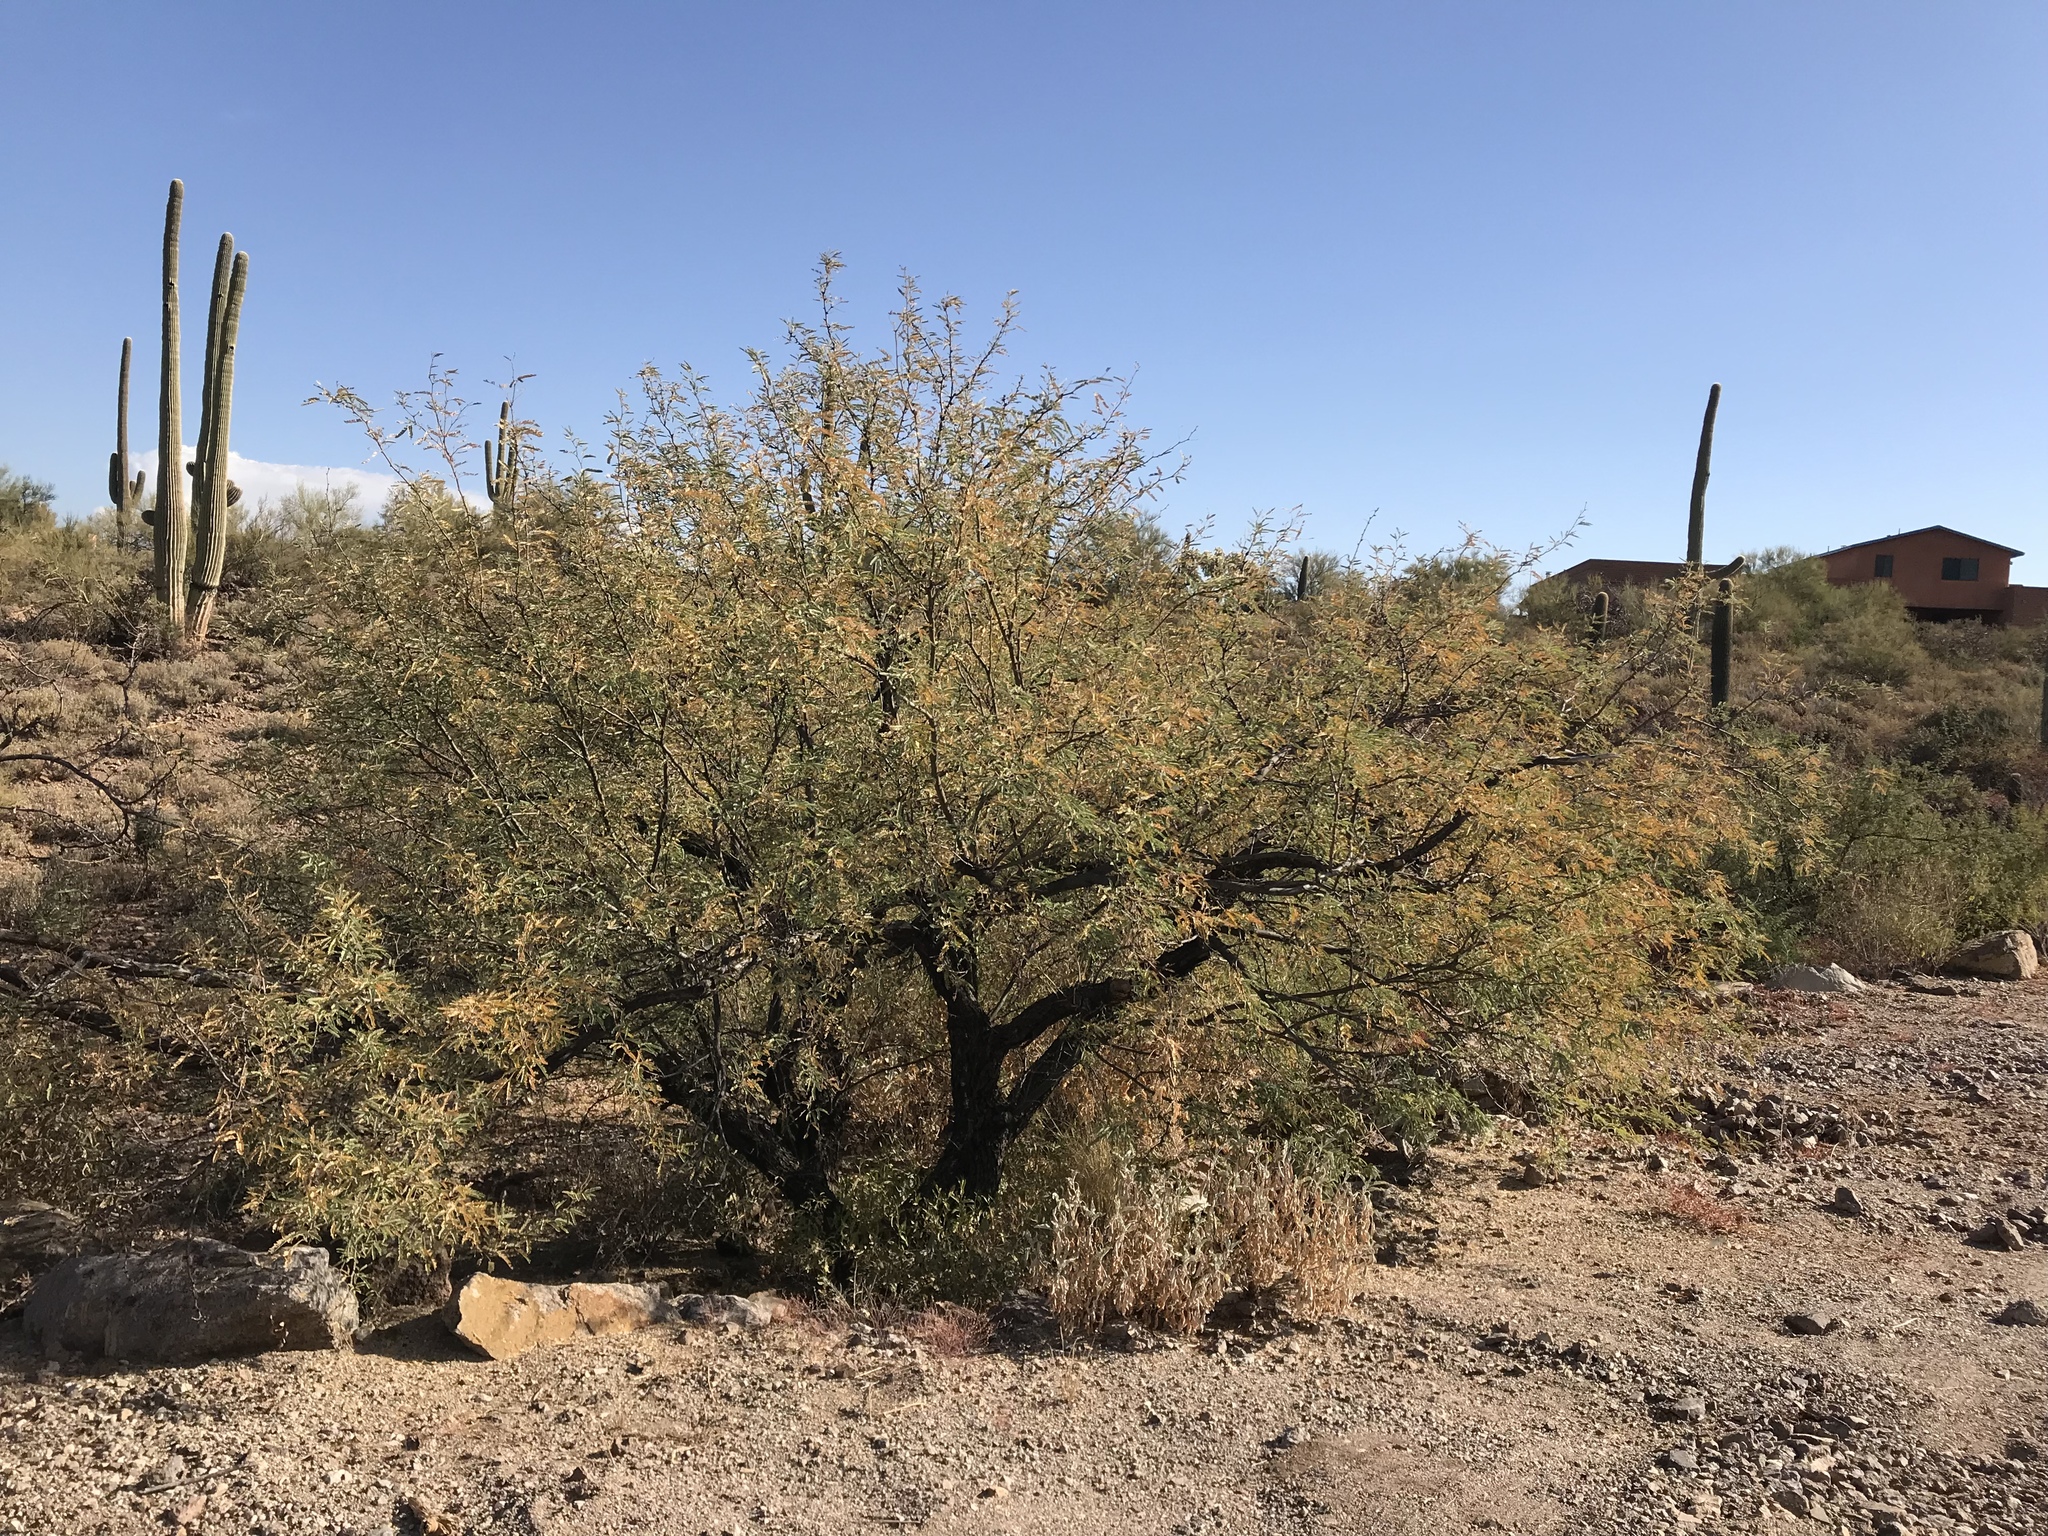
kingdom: Plantae
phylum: Tracheophyta
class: Magnoliopsida
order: Fabales
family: Fabaceae
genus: Vachellia
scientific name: Vachellia constricta
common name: Mescat acacia
